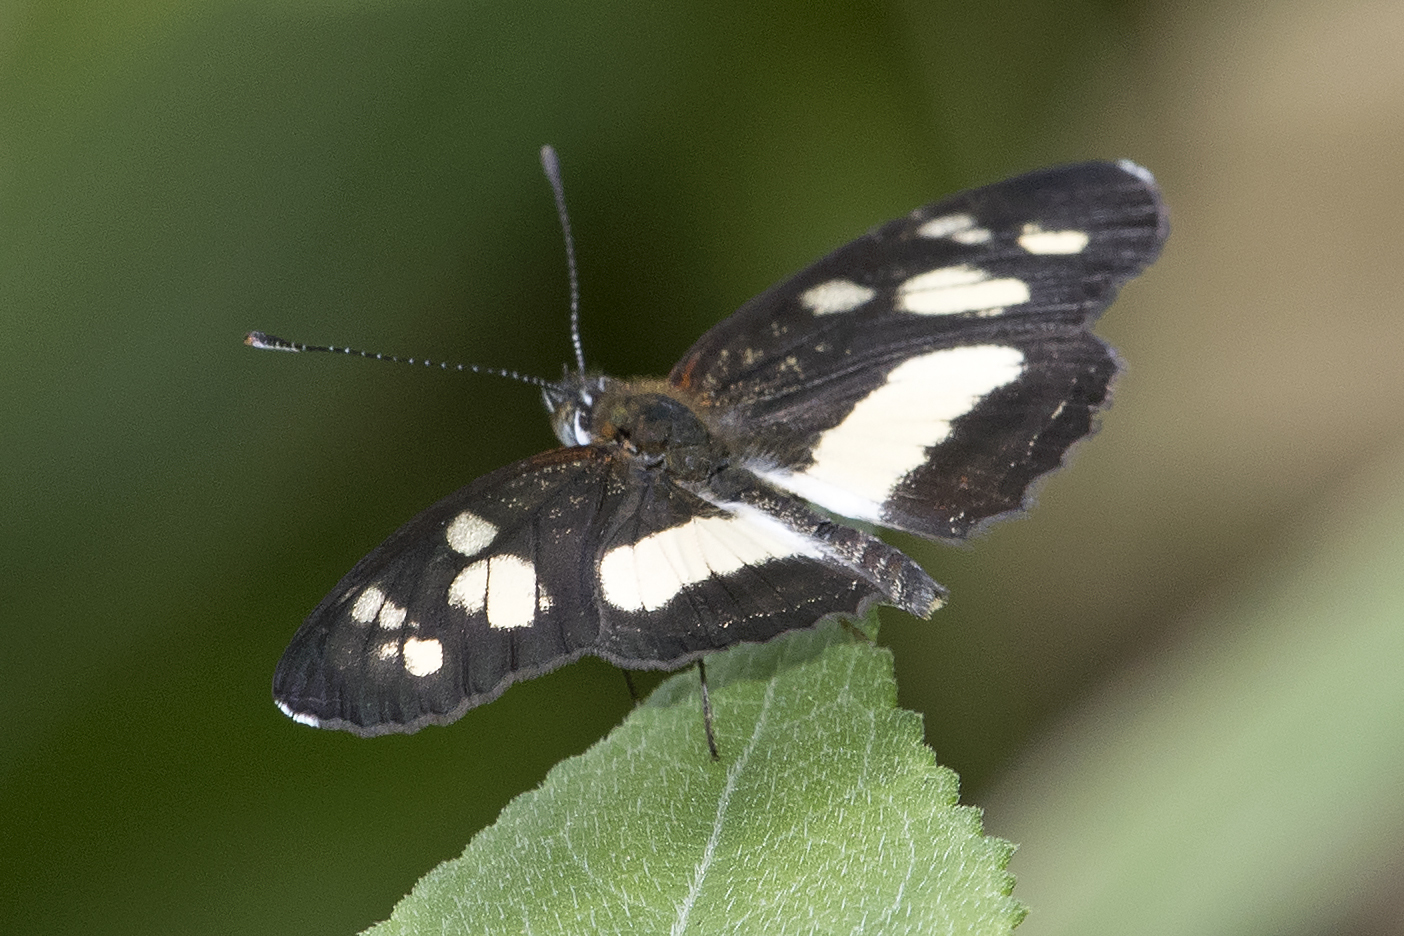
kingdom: Animalia
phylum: Arthropoda
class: Insecta
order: Lepidoptera
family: Nymphalidae
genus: Eresia
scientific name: Eresia clio
